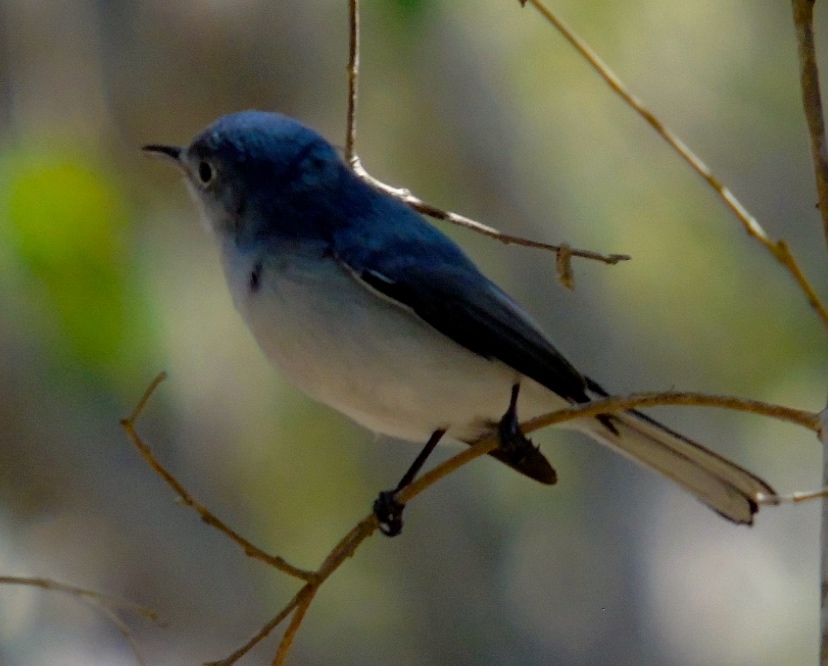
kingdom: Animalia
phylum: Chordata
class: Aves
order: Passeriformes
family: Polioptilidae
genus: Polioptila
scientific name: Polioptila caerulea
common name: Blue-gray gnatcatcher
